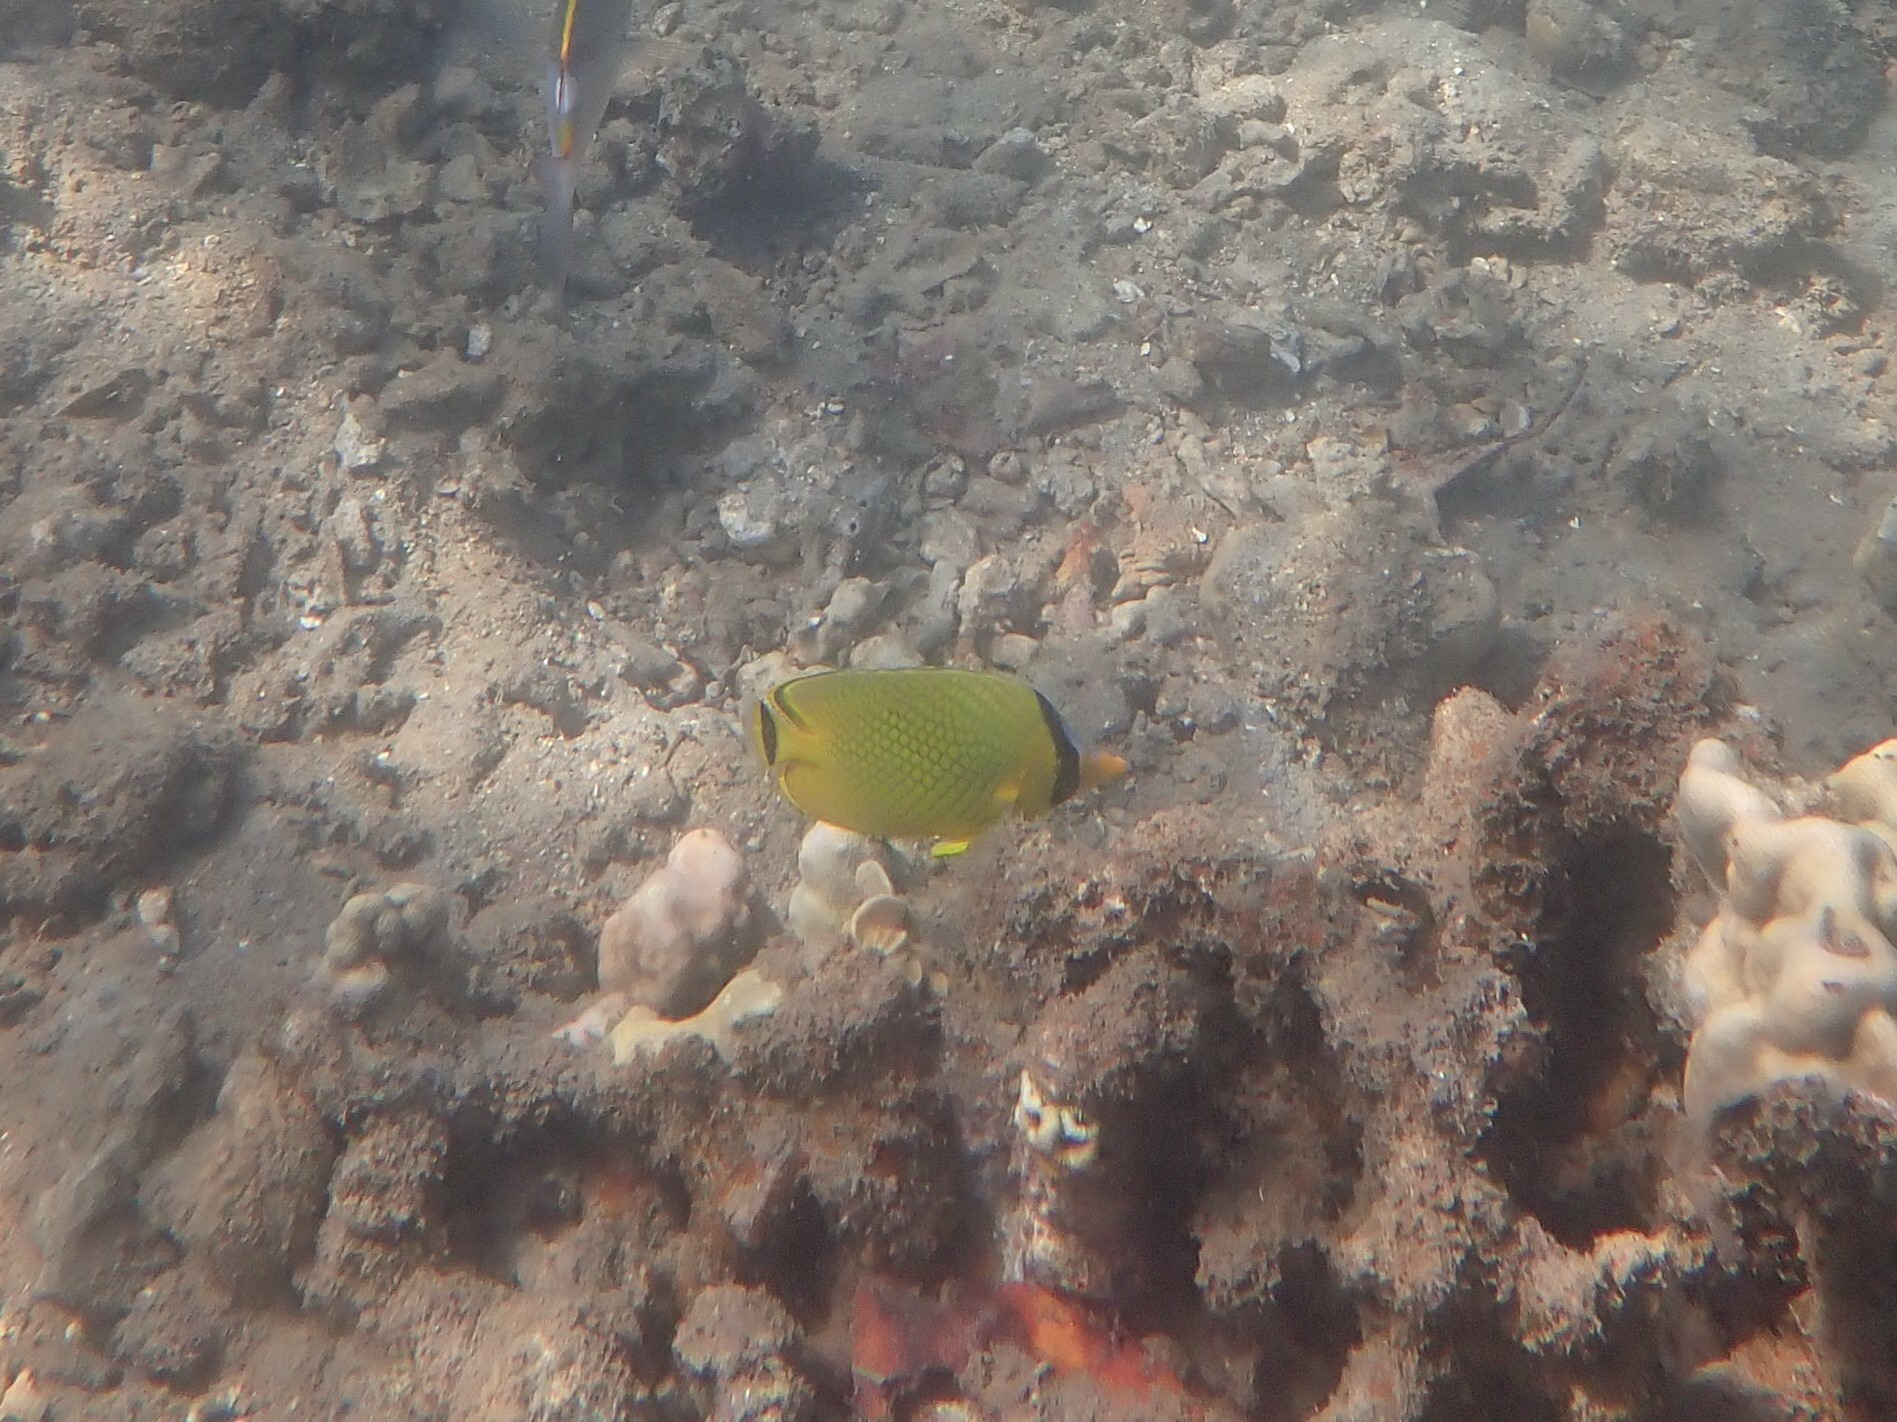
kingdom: Animalia
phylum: Chordata
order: Perciformes
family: Chaetodontidae
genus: Chaetodon
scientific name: Chaetodon rafflesii
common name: Latticed butterflyfish
